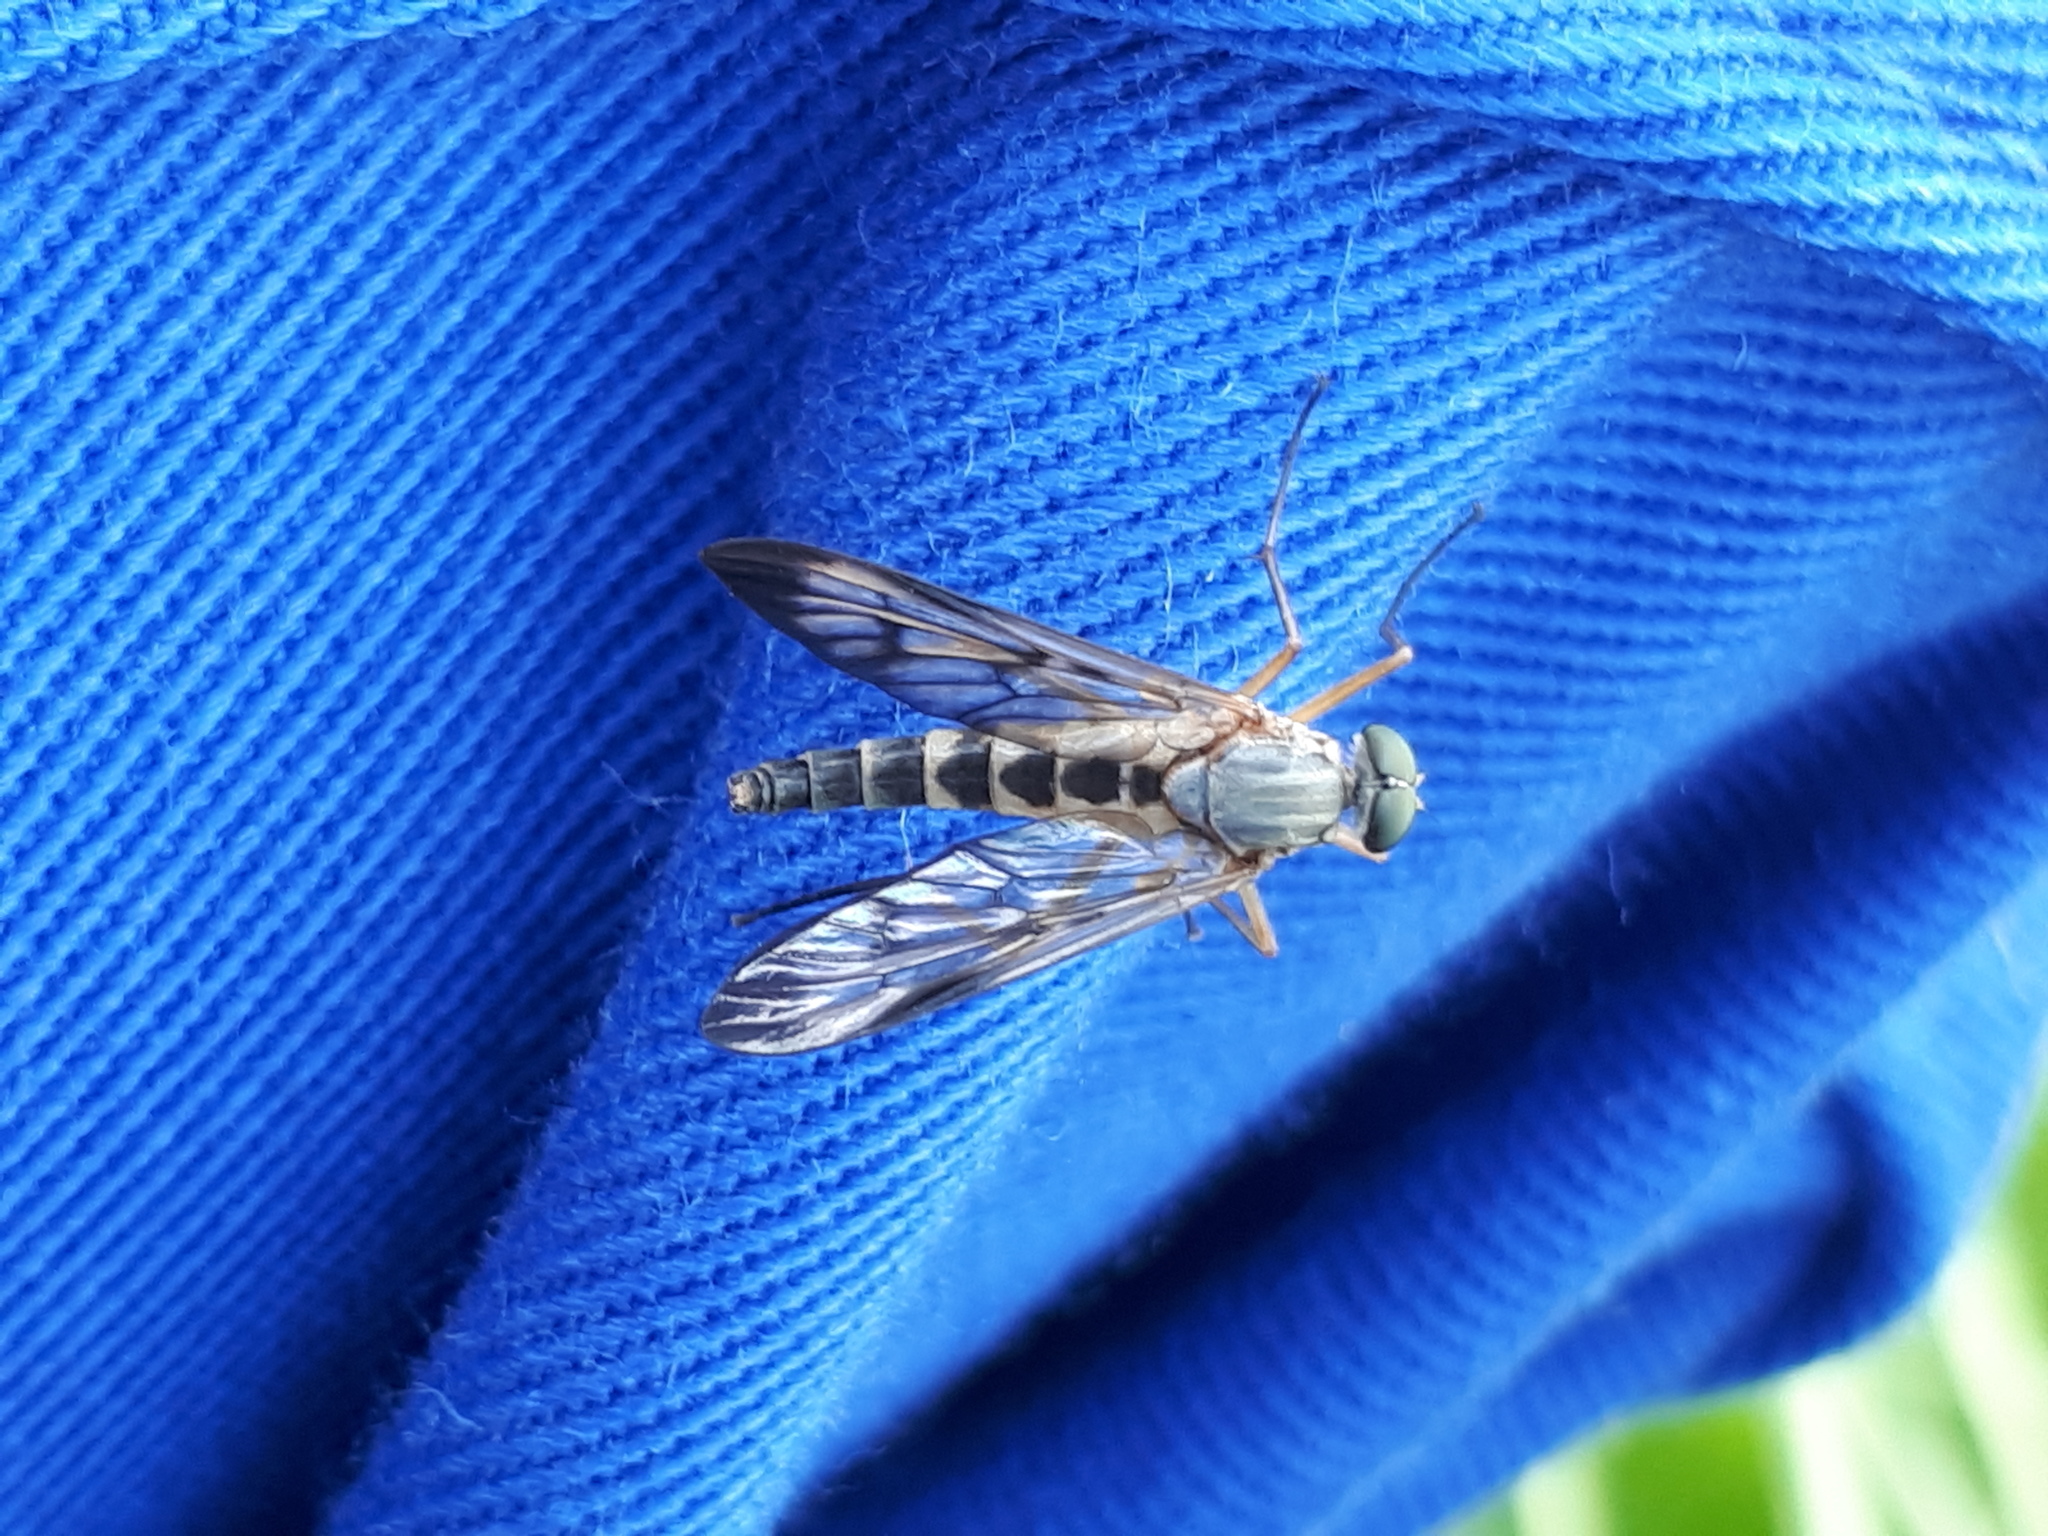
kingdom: Animalia
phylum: Arthropoda
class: Insecta
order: Diptera
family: Rhagionidae
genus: Rhagio
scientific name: Rhagio scolopacea
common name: Downlooker snipefly
